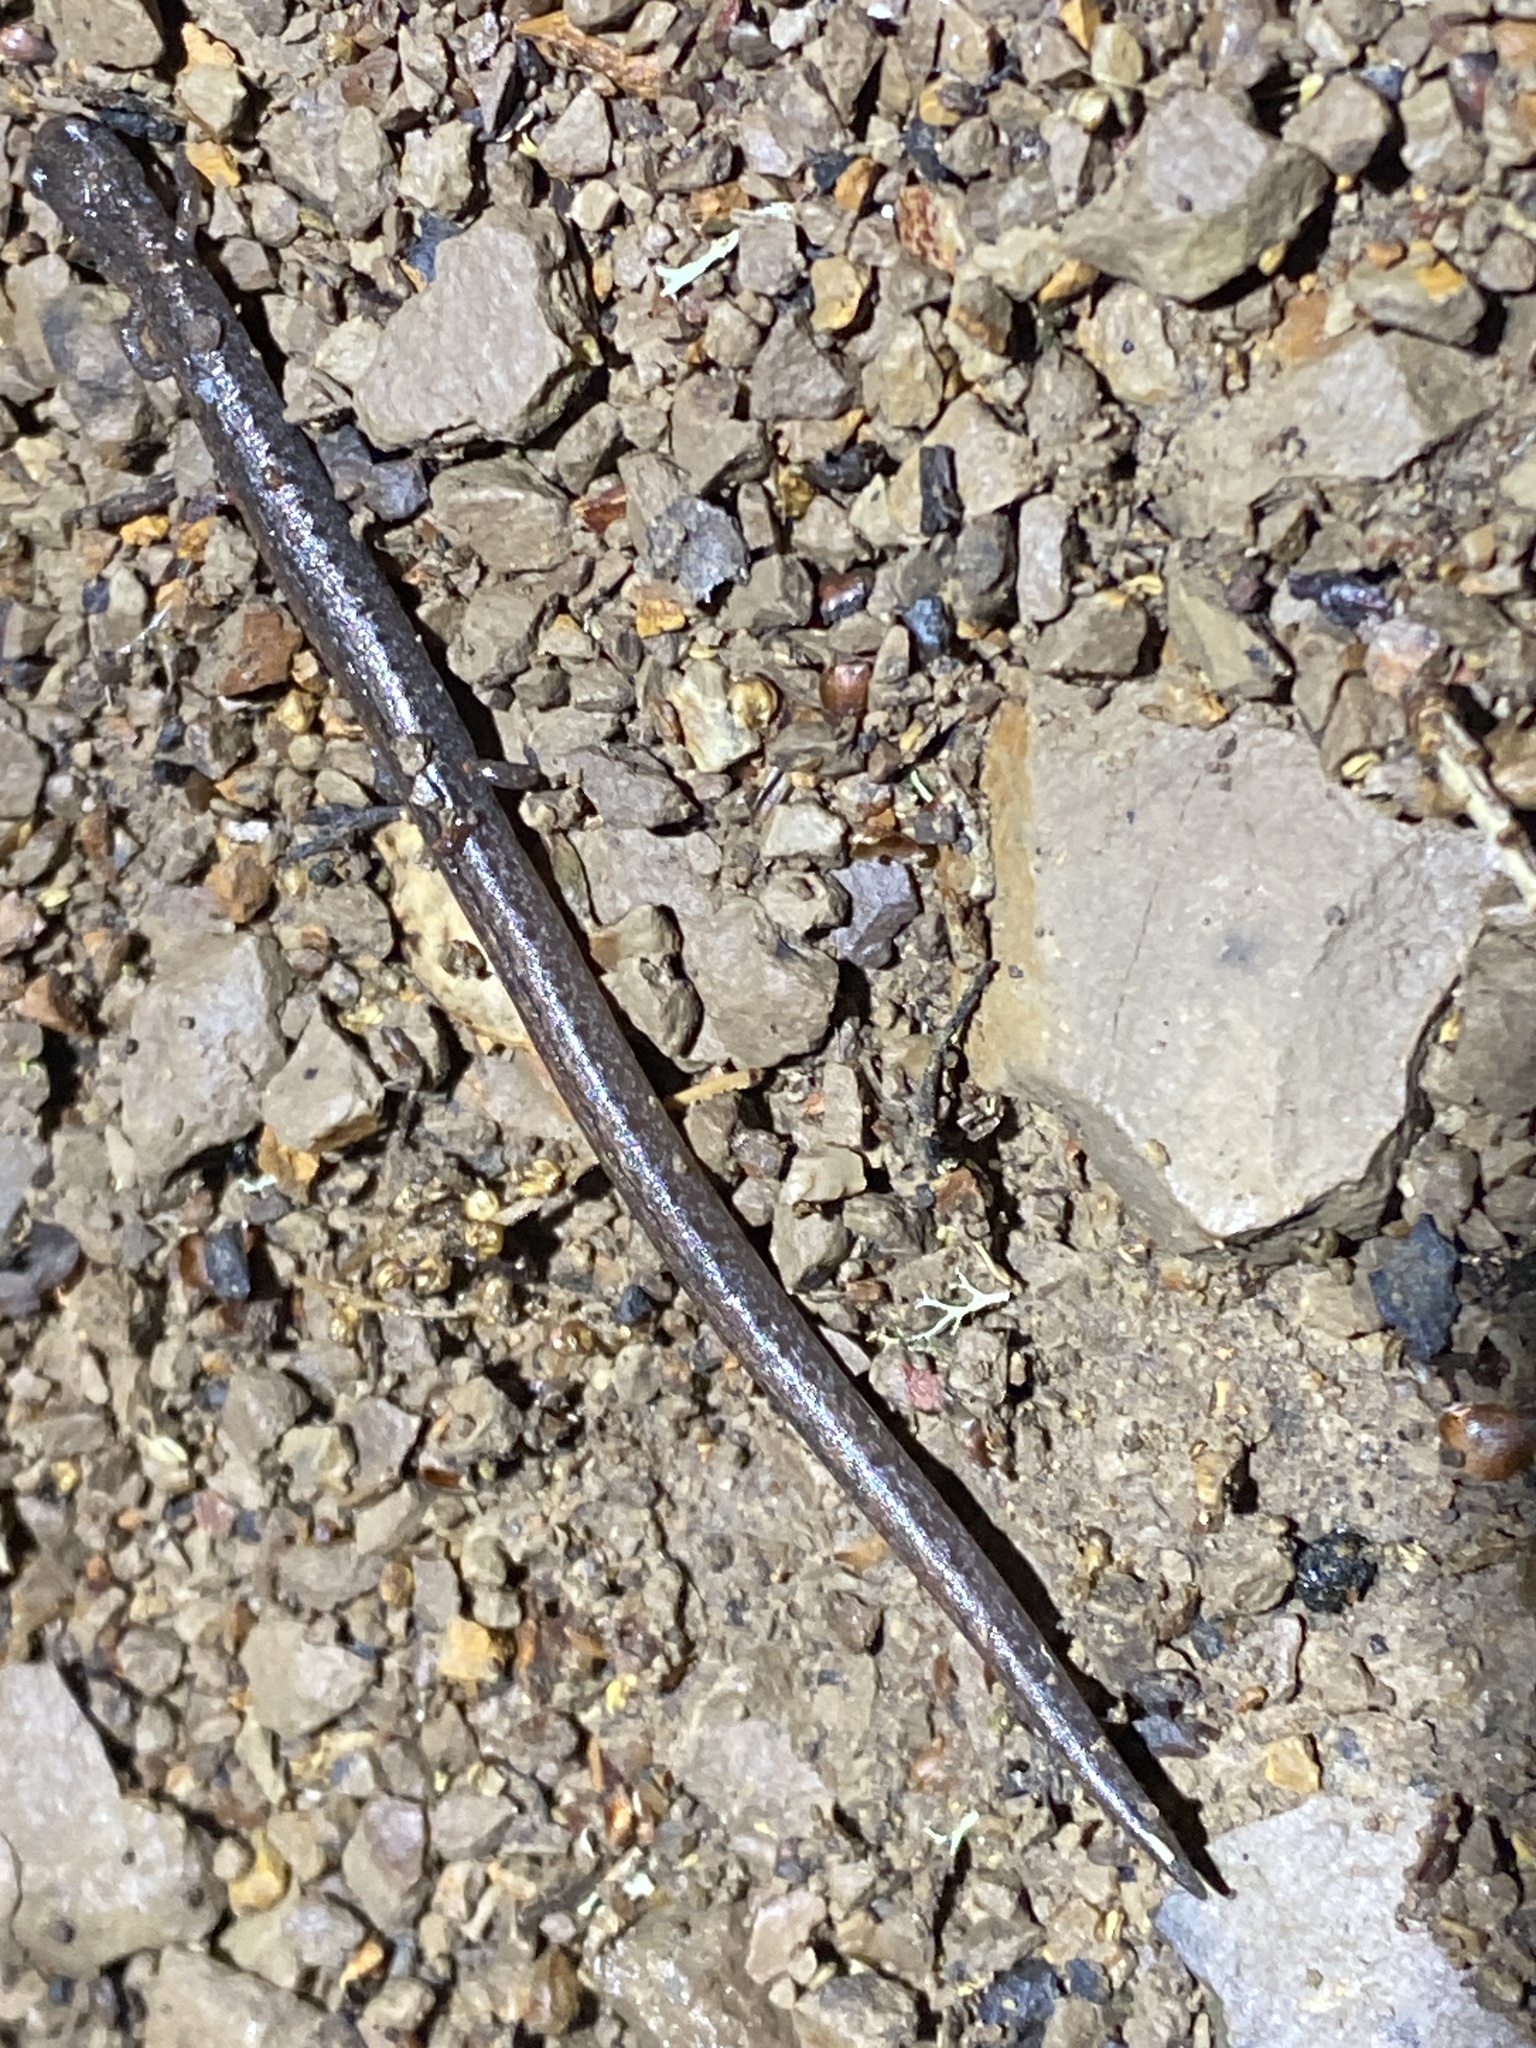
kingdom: Animalia
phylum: Chordata
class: Amphibia
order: Caudata
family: Plethodontidae
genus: Batrachoseps
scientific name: Batrachoseps attenuatus
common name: California slender salamander
